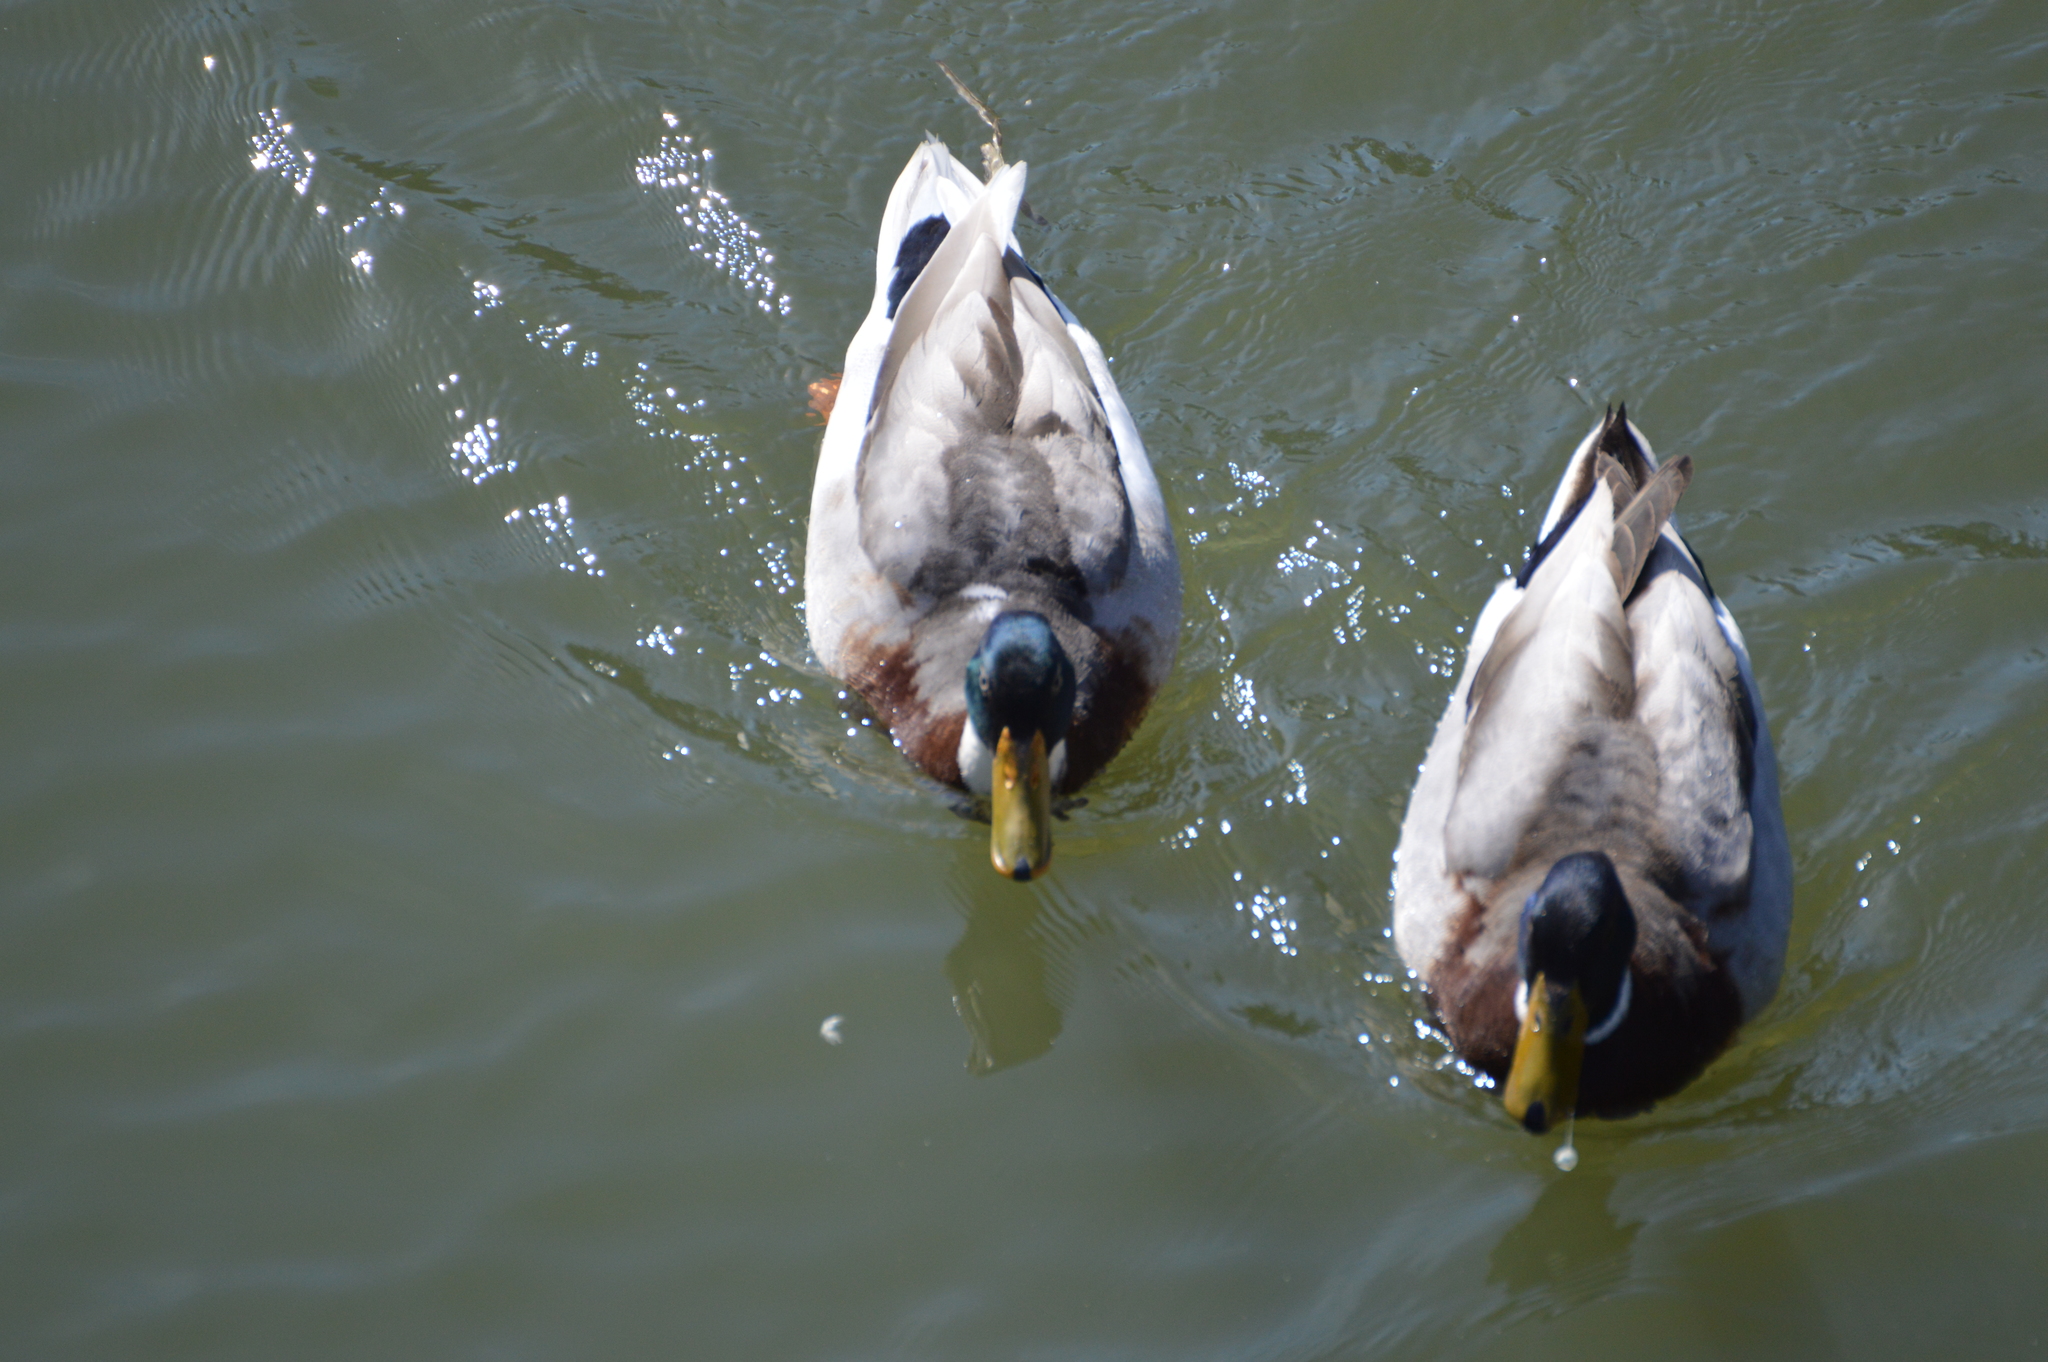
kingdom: Animalia
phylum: Chordata
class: Aves
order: Anseriformes
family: Anatidae
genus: Anas
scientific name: Anas platyrhynchos
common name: Mallard
